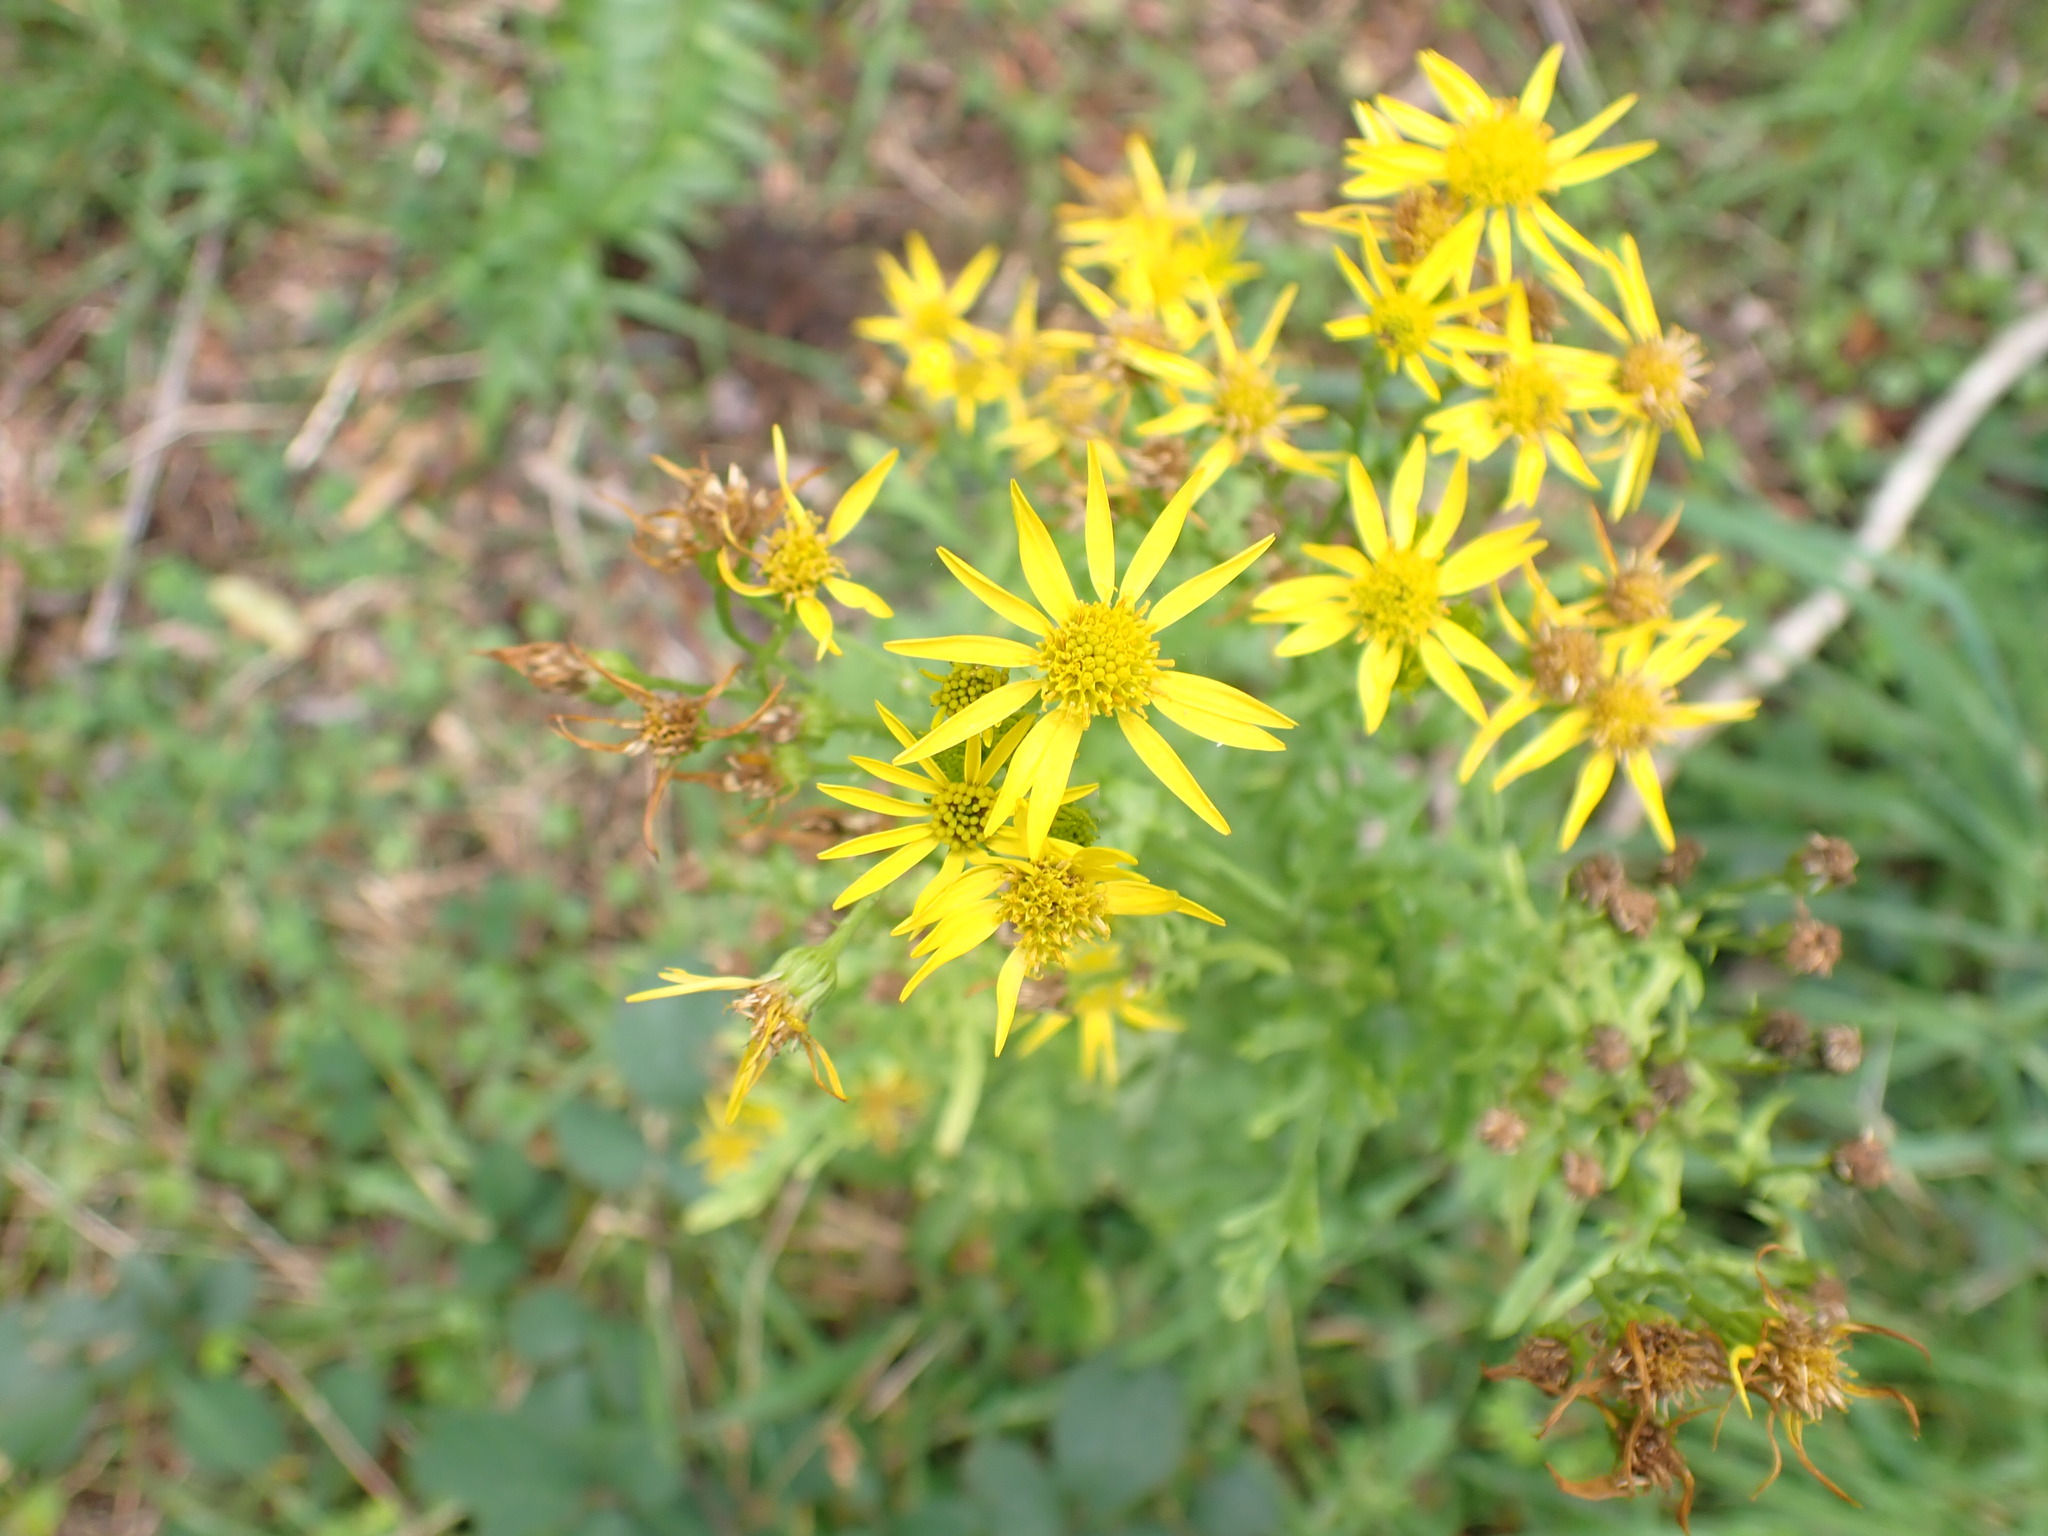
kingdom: Plantae
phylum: Tracheophyta
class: Magnoliopsida
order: Asterales
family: Asteraceae
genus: Jacobaea
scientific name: Jacobaea vulgaris
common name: Stinking willie
